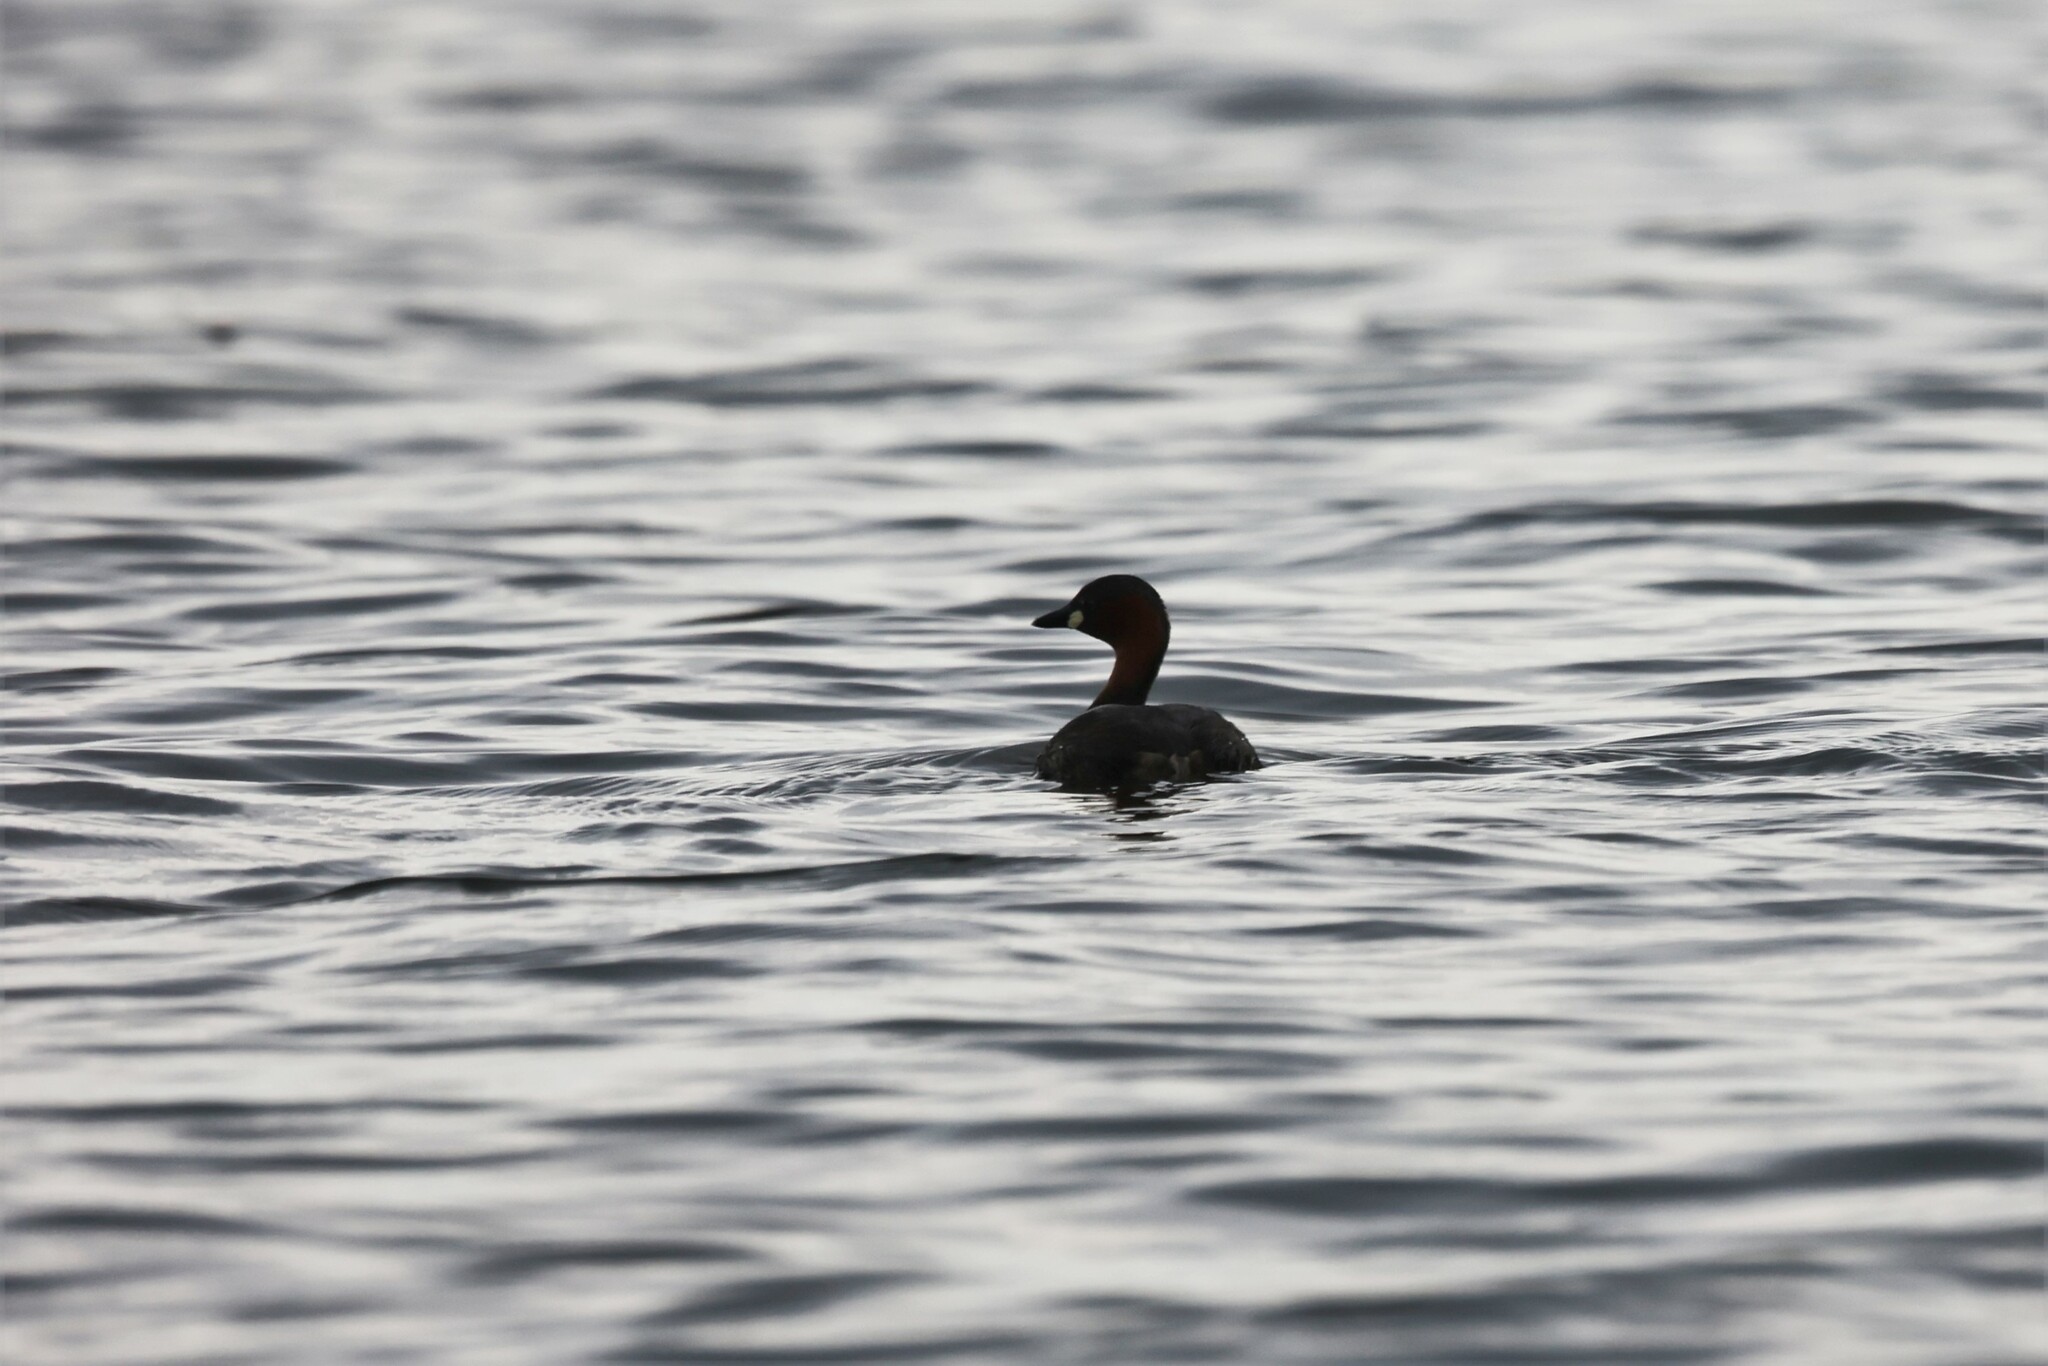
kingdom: Animalia
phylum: Chordata
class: Aves
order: Podicipediformes
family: Podicipedidae
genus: Tachybaptus
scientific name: Tachybaptus ruficollis
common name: Little grebe
